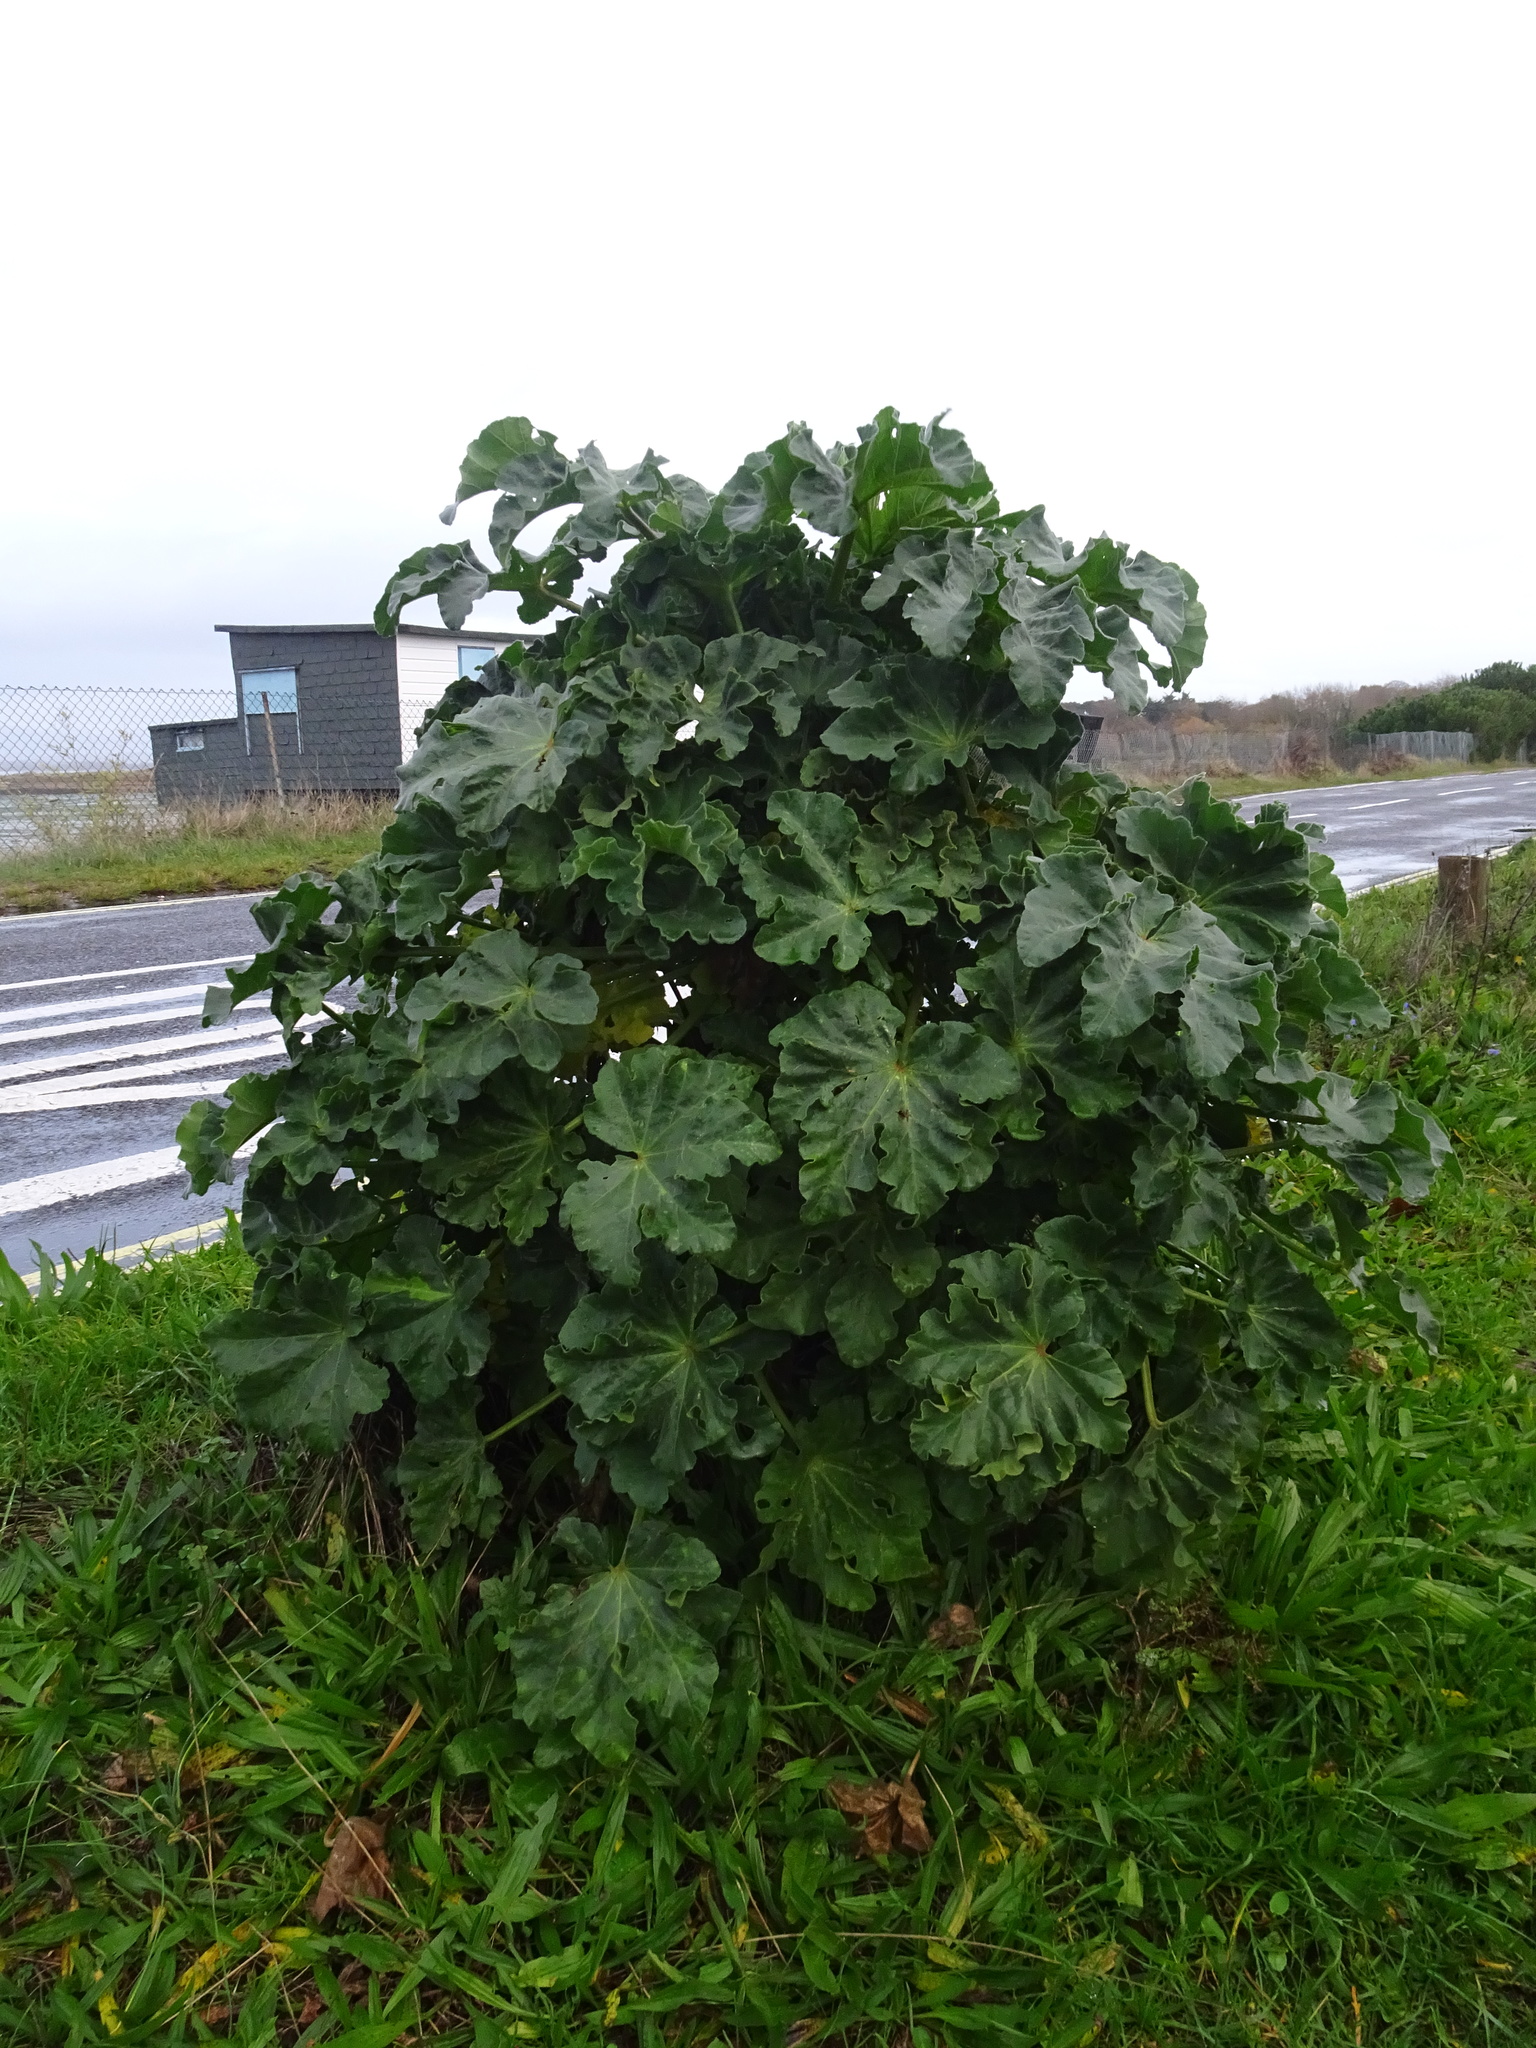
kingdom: Plantae
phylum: Tracheophyta
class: Magnoliopsida
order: Malvales
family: Malvaceae
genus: Malva
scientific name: Malva arborea
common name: Tree mallow
